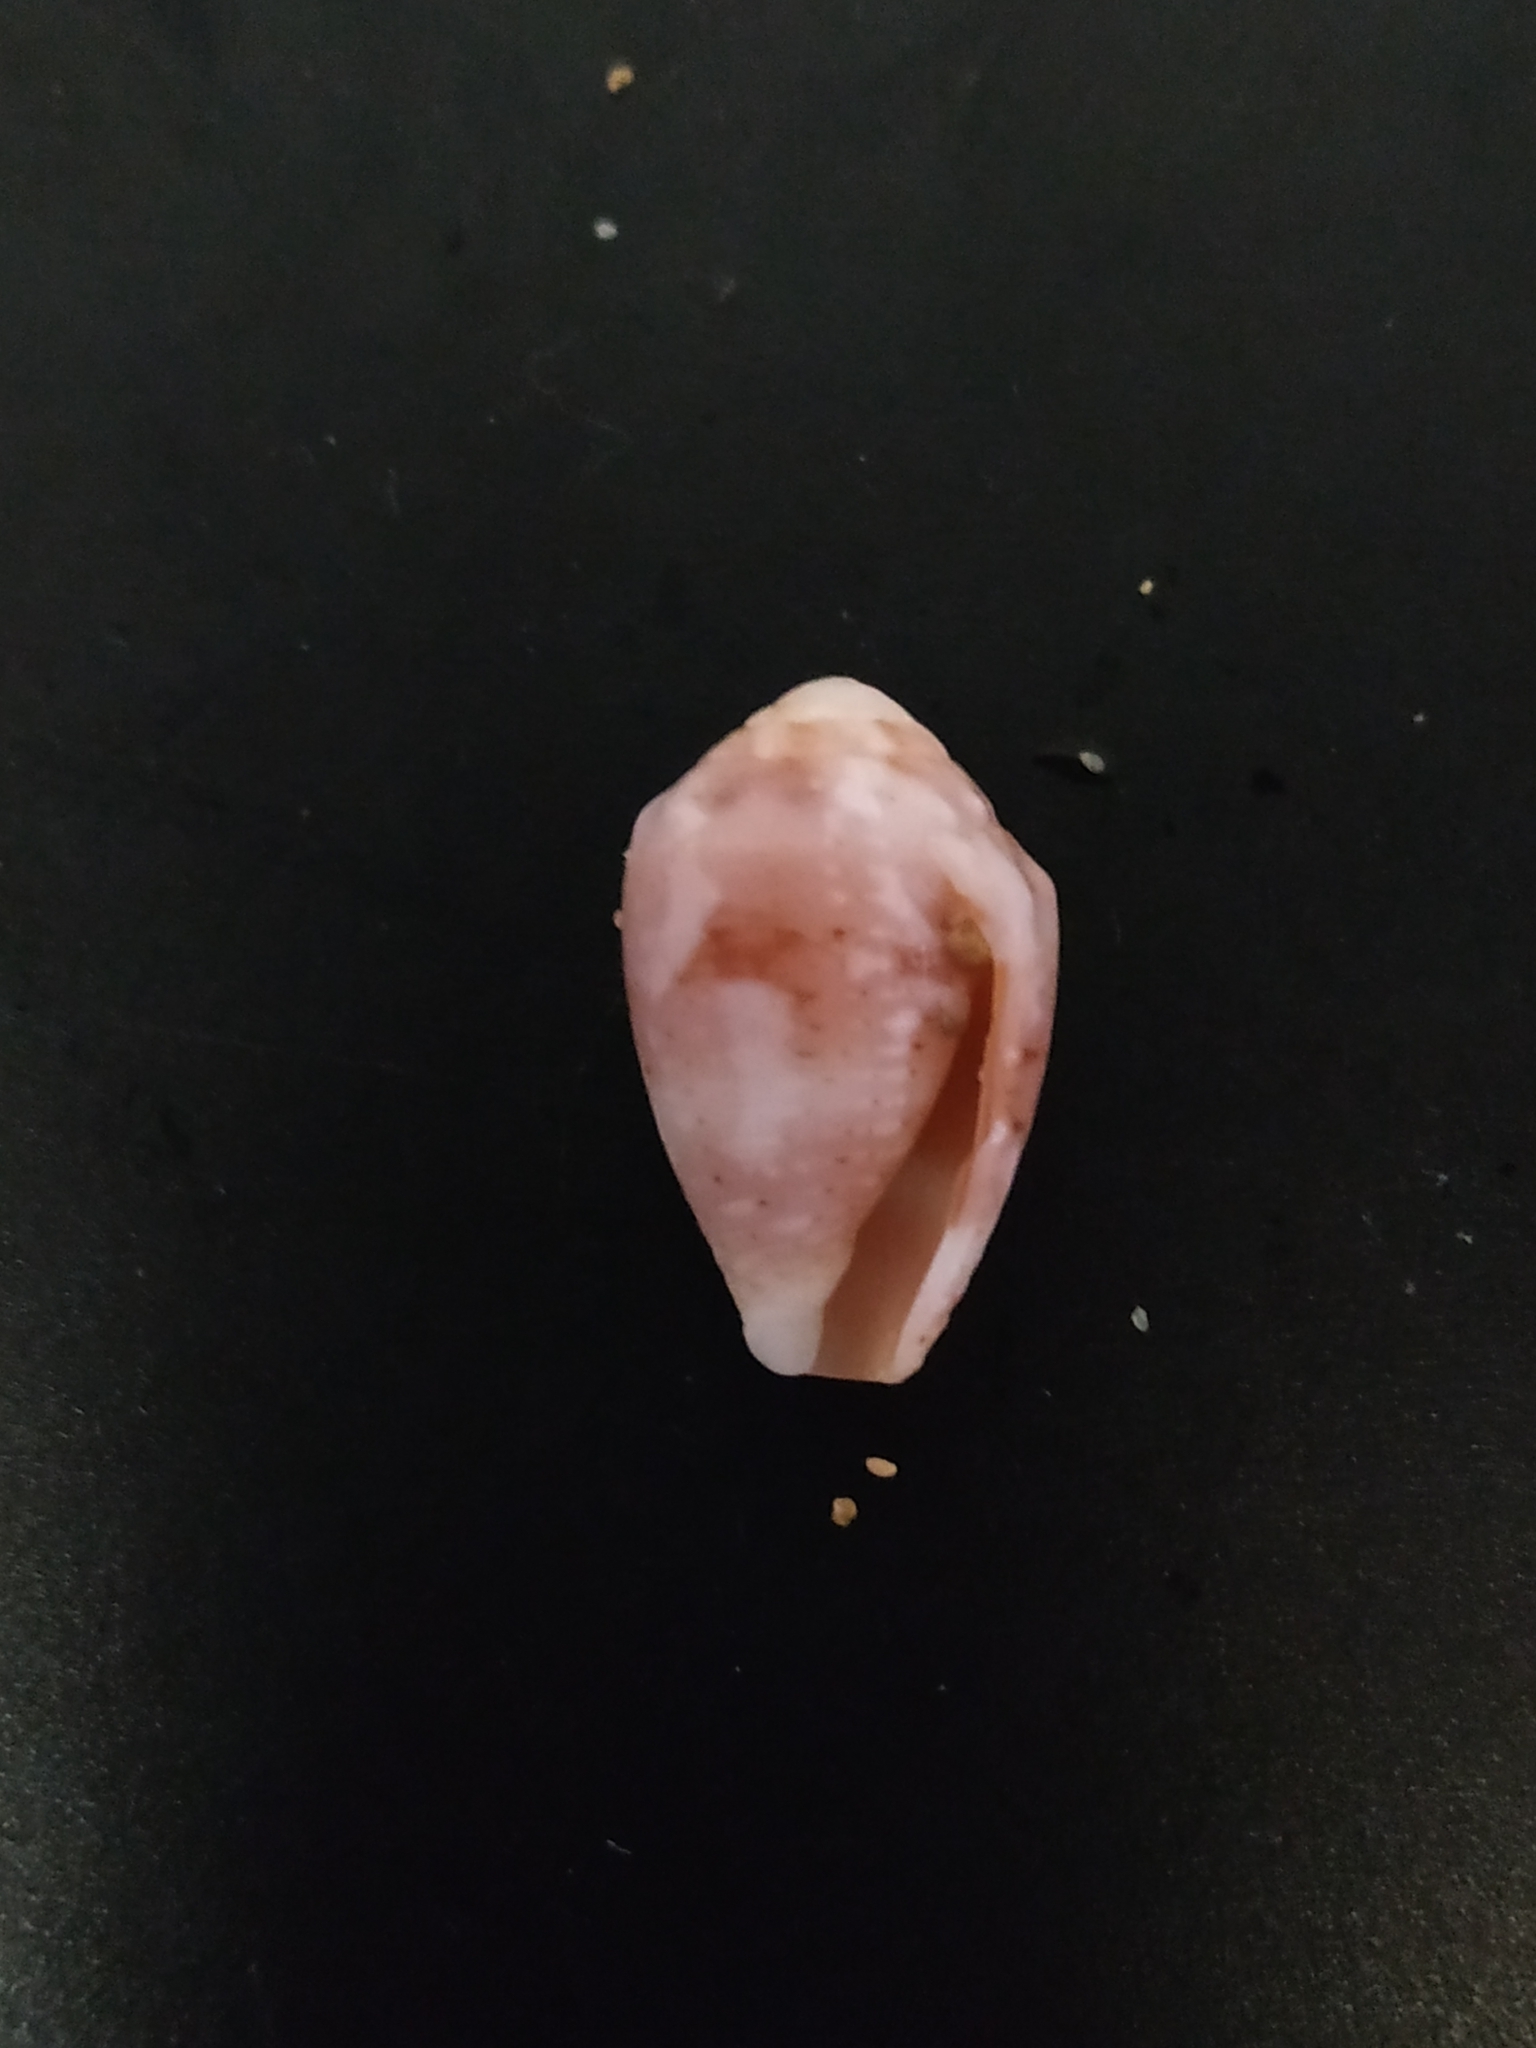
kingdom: Animalia
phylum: Mollusca
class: Gastropoda
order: Neogastropoda
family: Conidae
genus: Conus
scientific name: Conus coronatus
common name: Coronated cone
